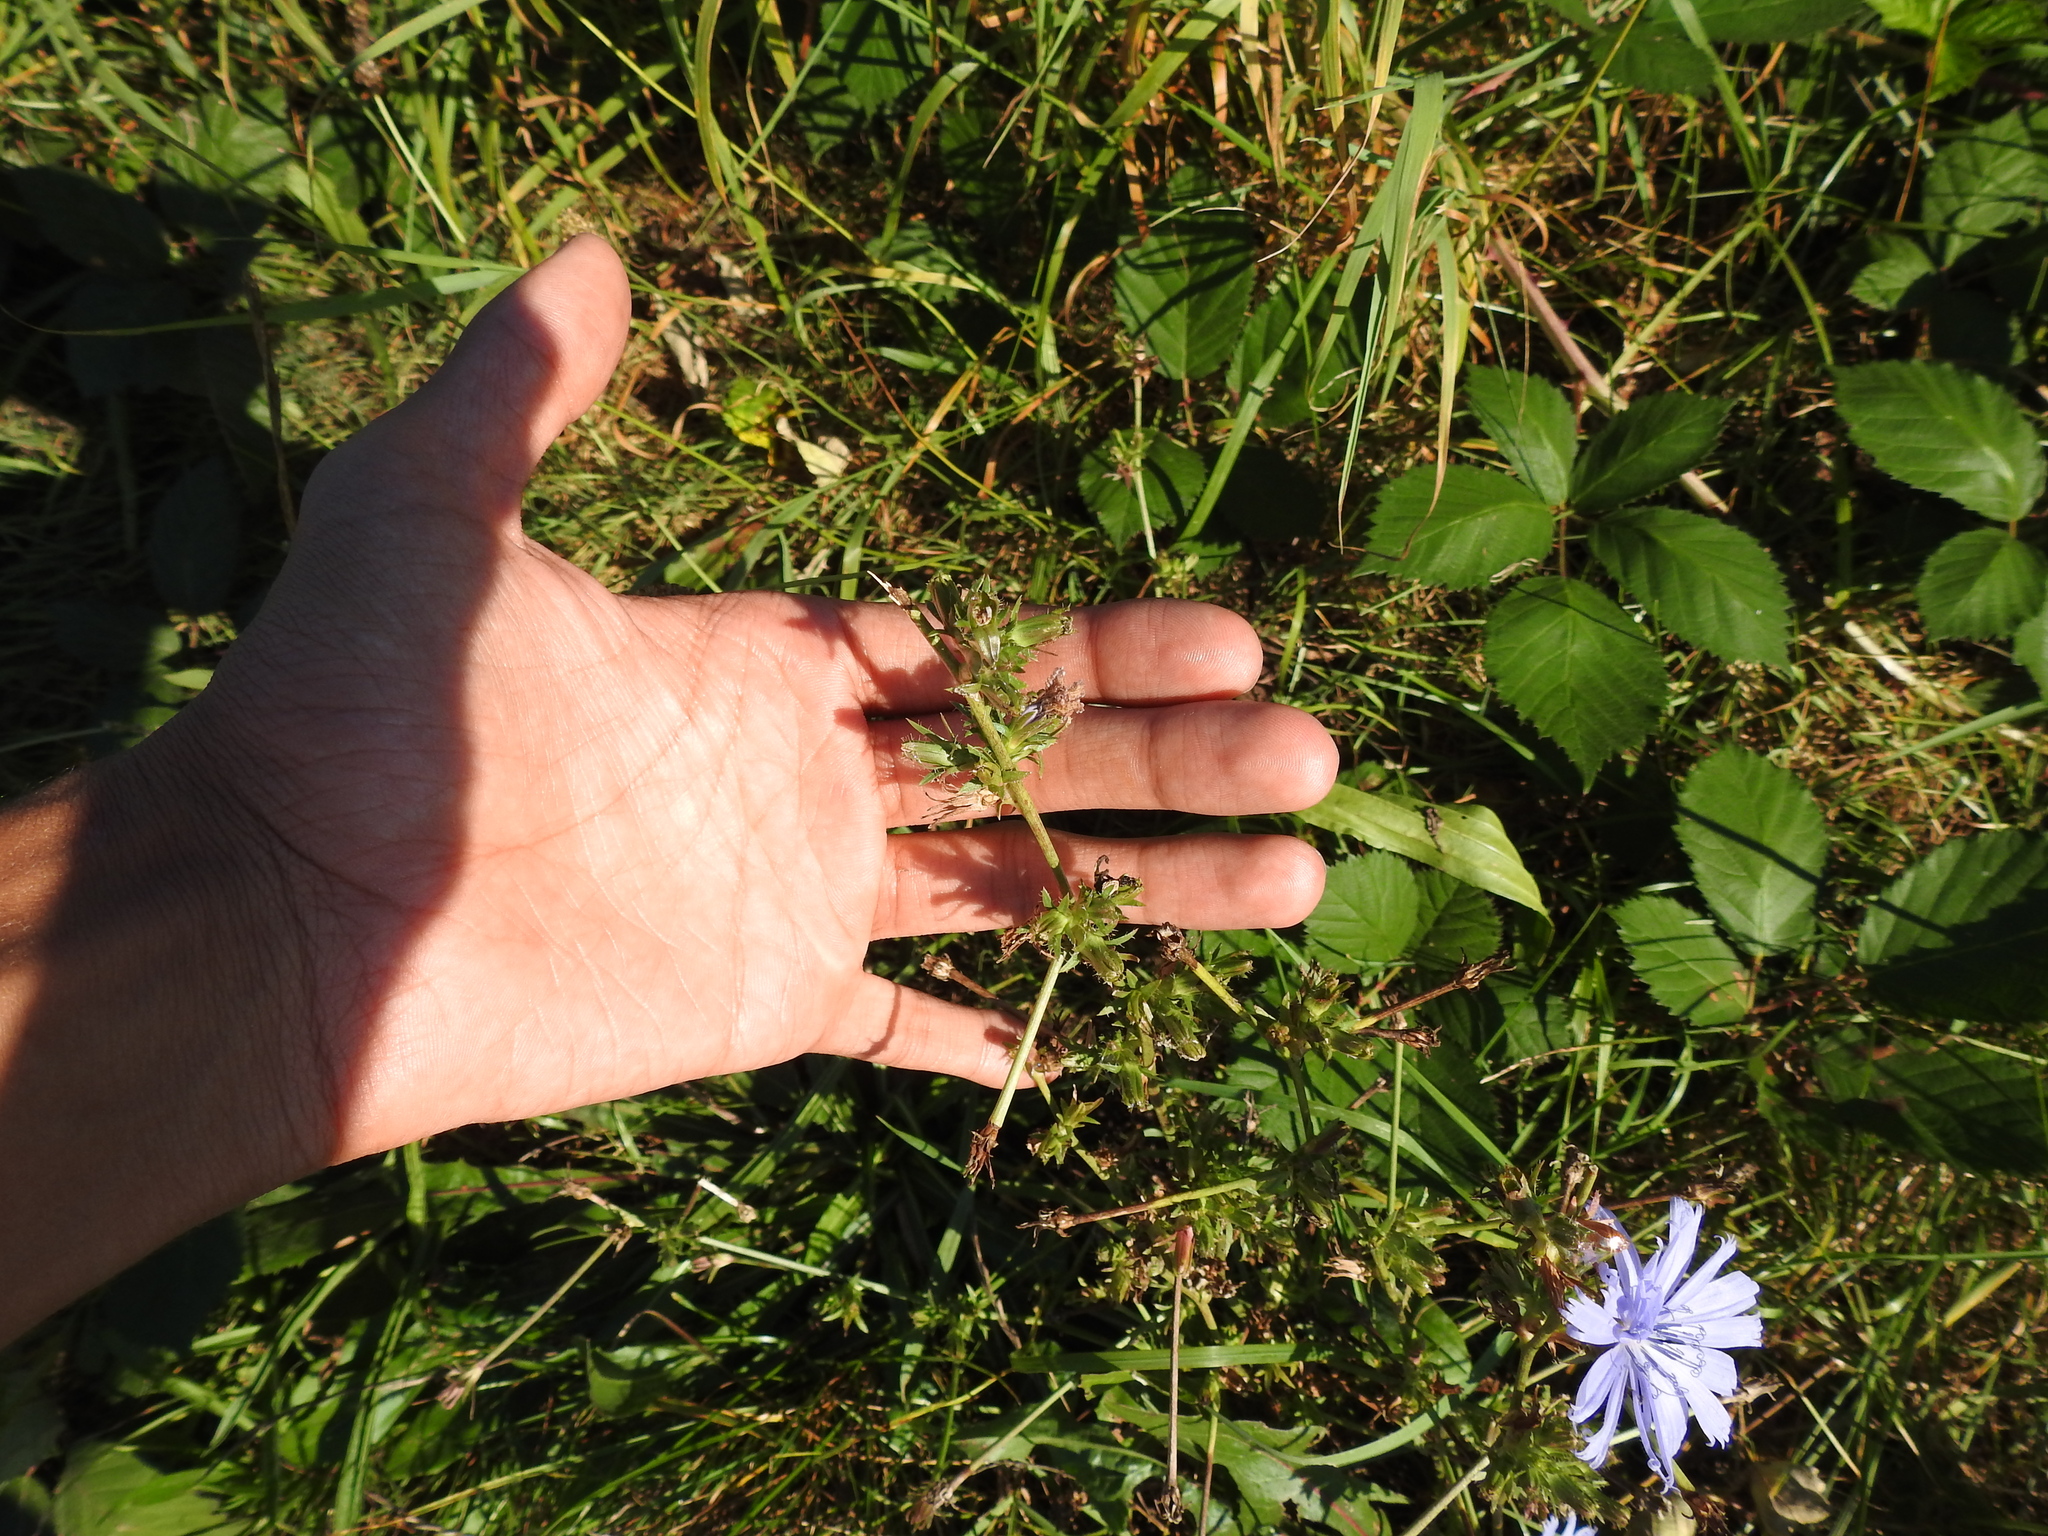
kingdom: Plantae
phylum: Tracheophyta
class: Magnoliopsida
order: Asterales
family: Asteraceae
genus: Cichorium
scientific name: Cichorium intybus
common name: Chicory
